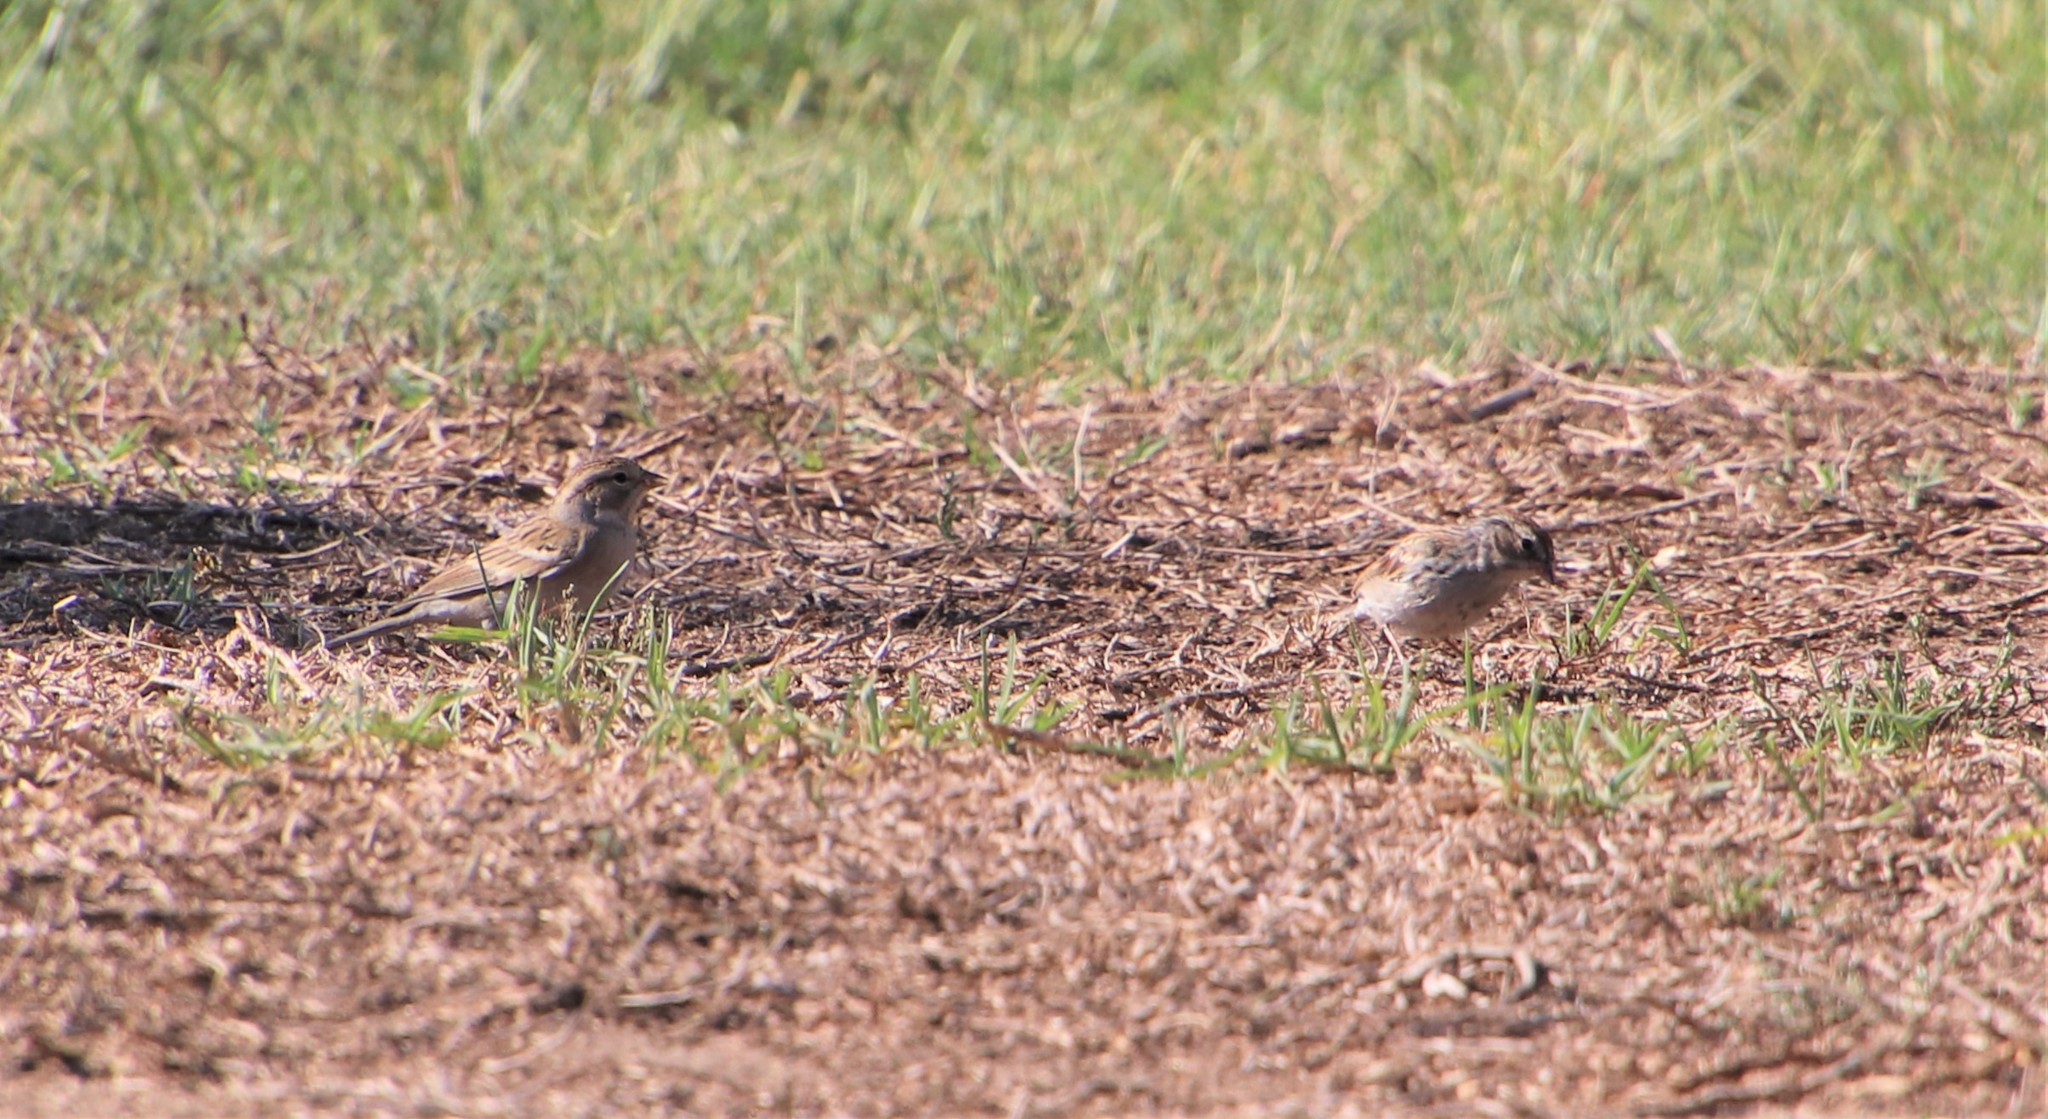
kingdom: Animalia
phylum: Chordata
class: Aves
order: Passeriformes
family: Passerellidae
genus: Spizella
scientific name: Spizella passerina
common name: Chipping sparrow
